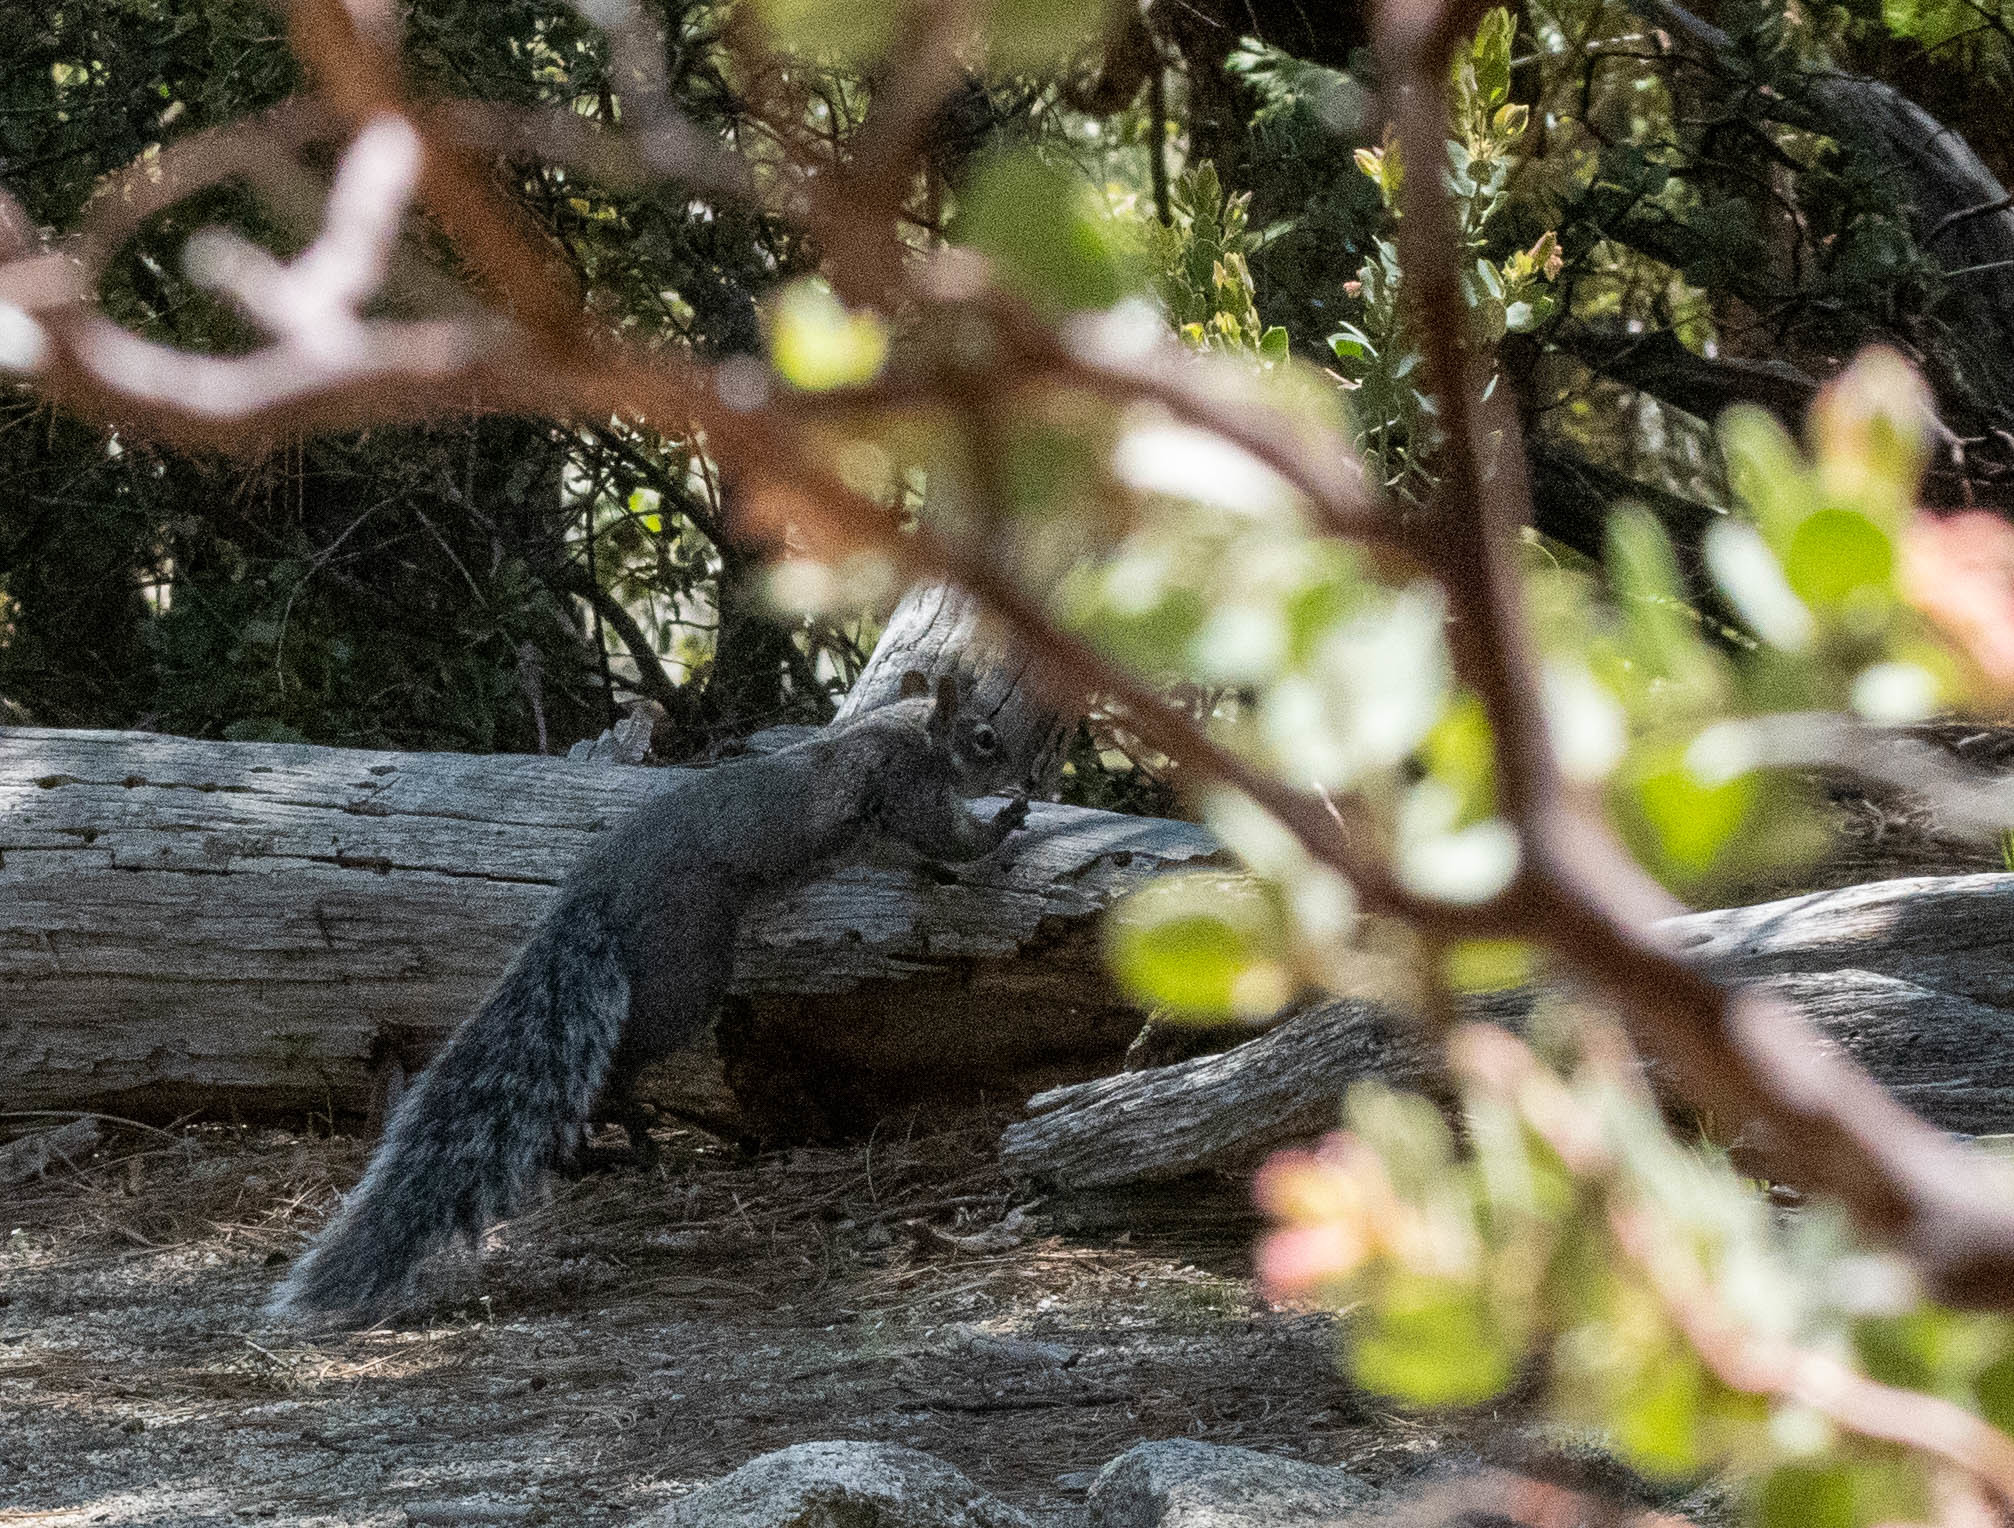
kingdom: Animalia
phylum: Chordata
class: Mammalia
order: Rodentia
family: Sciuridae
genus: Sciurus
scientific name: Sciurus griseus
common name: Western gray squirrel
